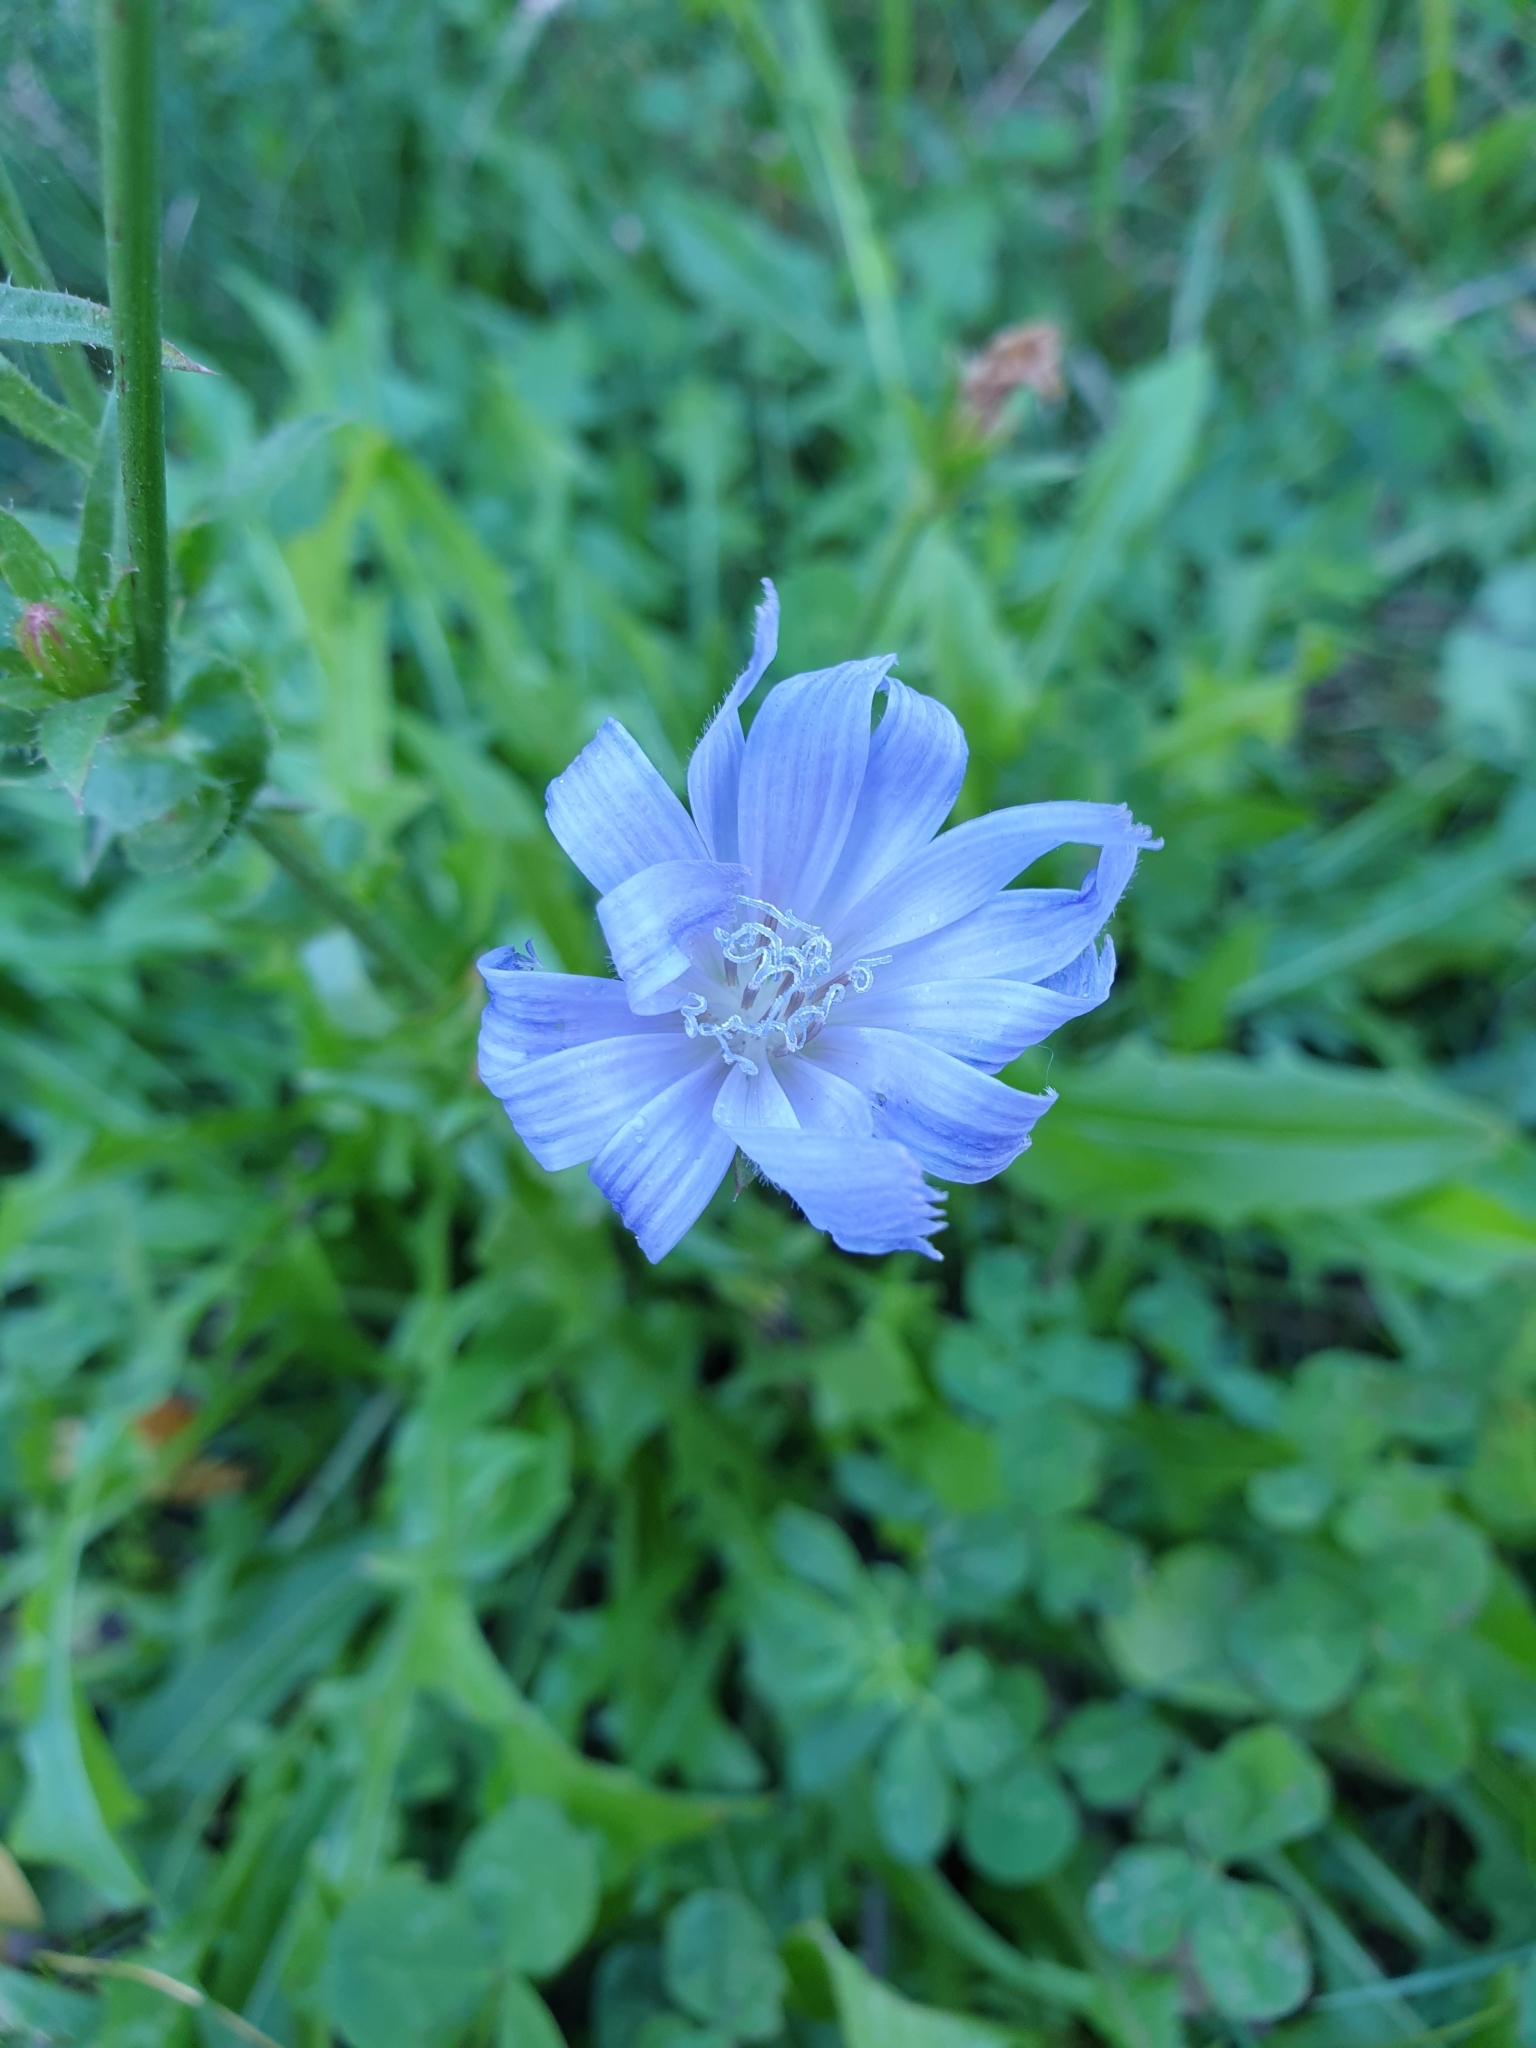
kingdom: Plantae
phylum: Tracheophyta
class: Magnoliopsida
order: Asterales
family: Asteraceae
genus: Cichorium
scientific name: Cichorium intybus
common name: Chicory
